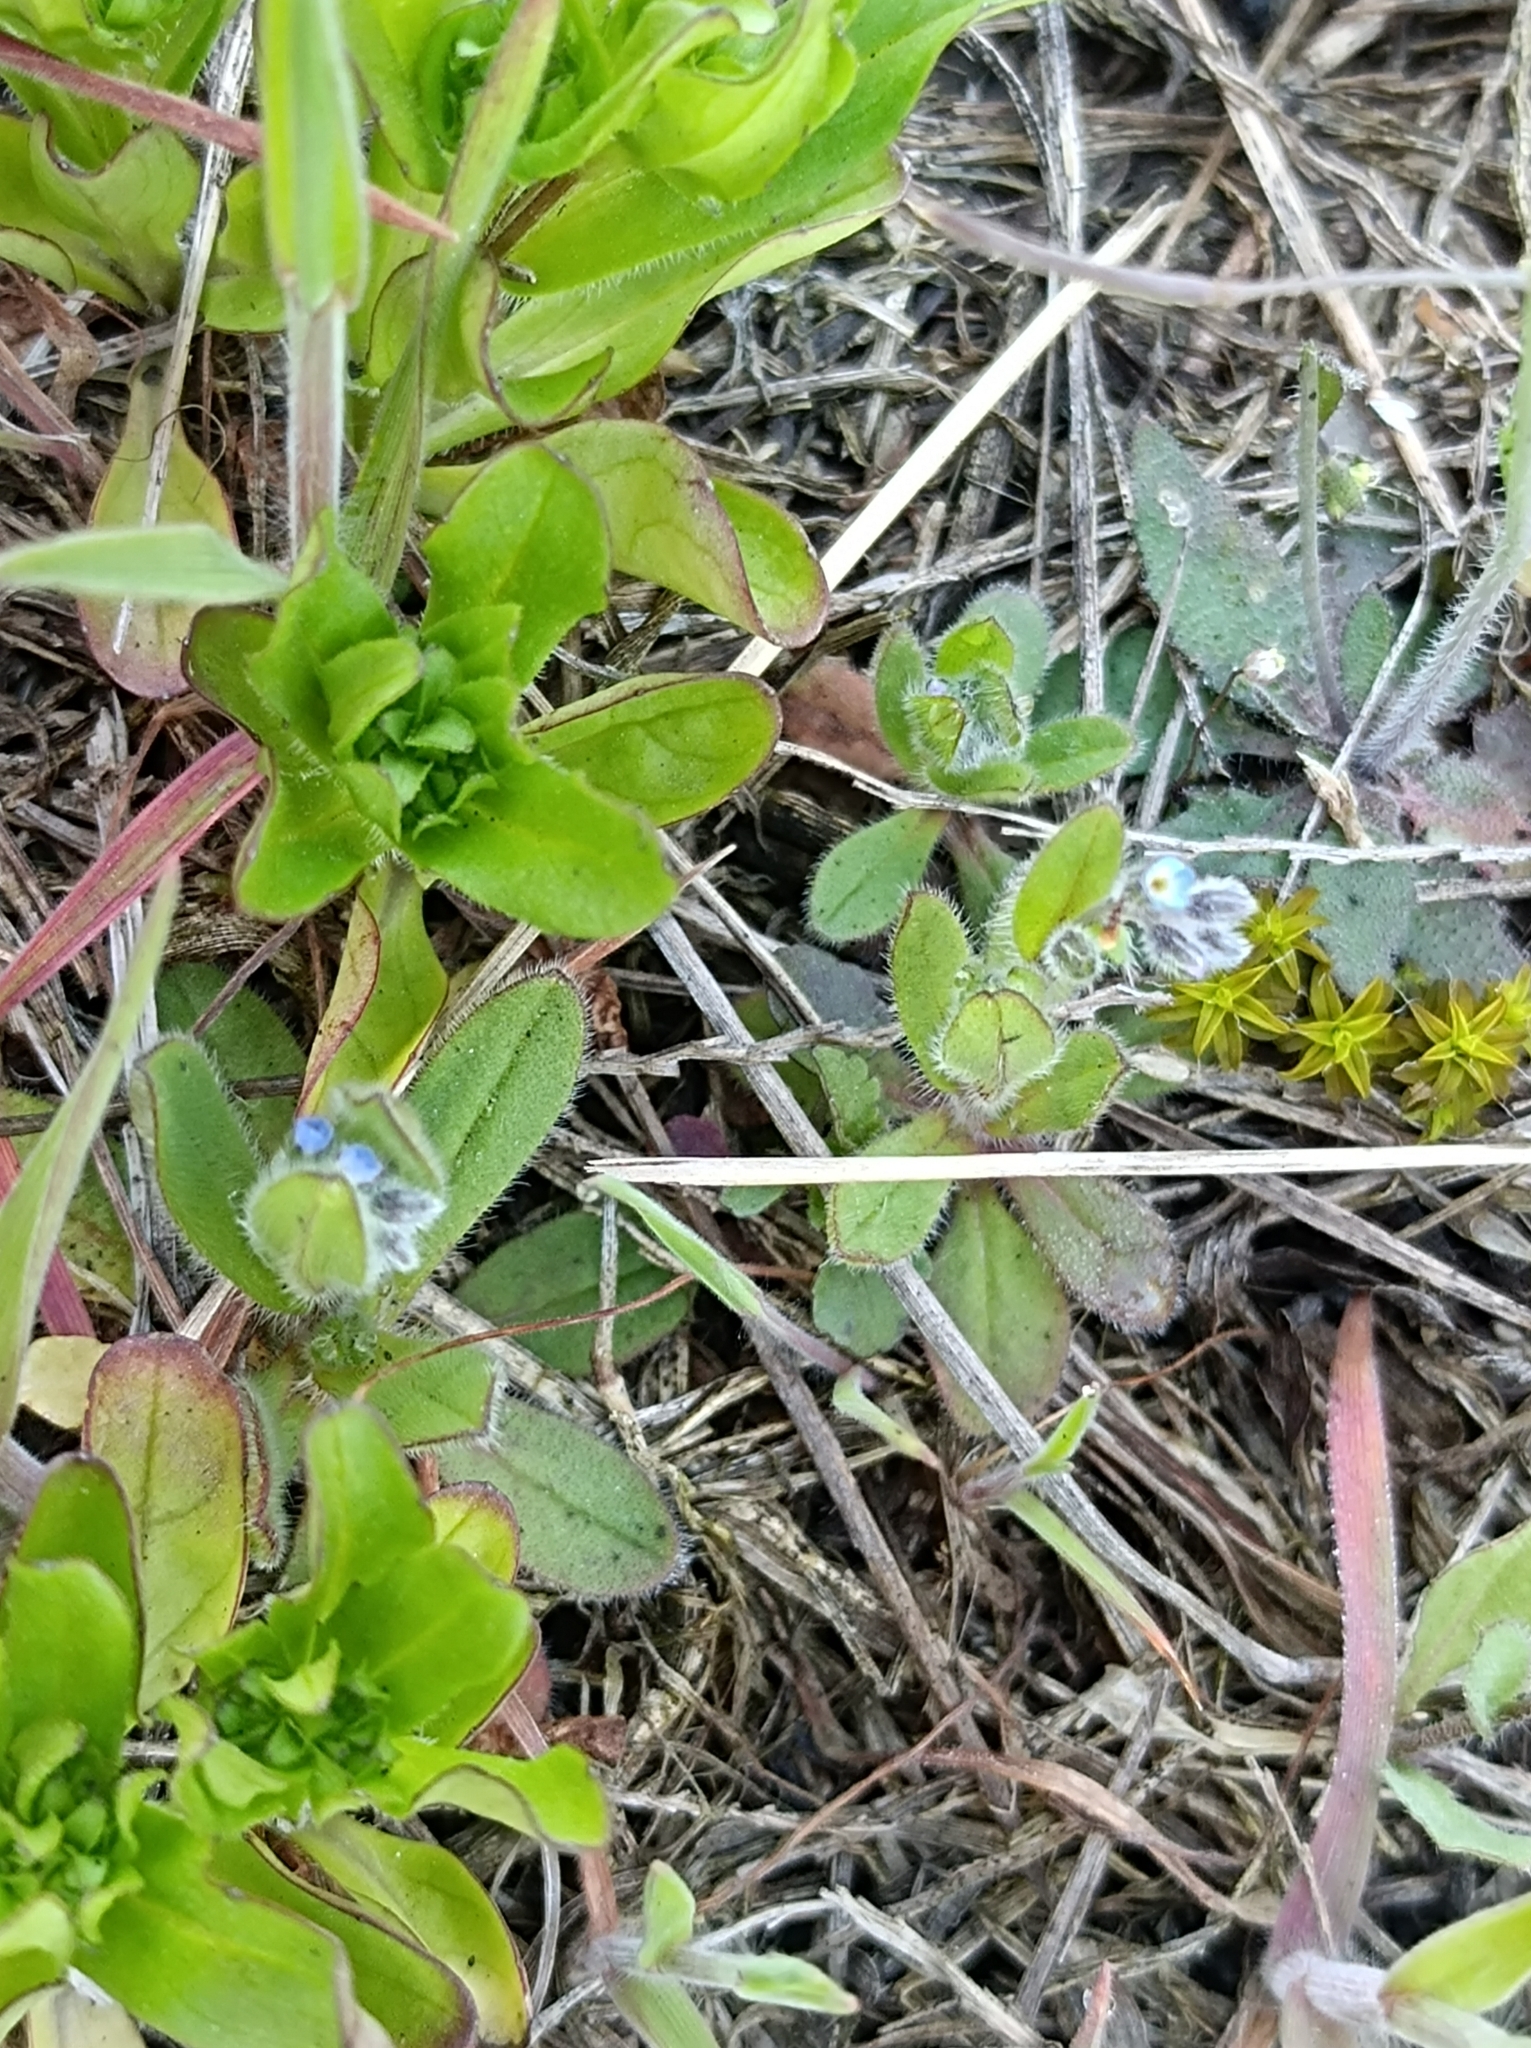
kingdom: Plantae
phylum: Tracheophyta
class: Magnoliopsida
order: Boraginales
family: Boraginaceae
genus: Myosotis
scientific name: Myosotis ramosissima
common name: Early forget-me-not
